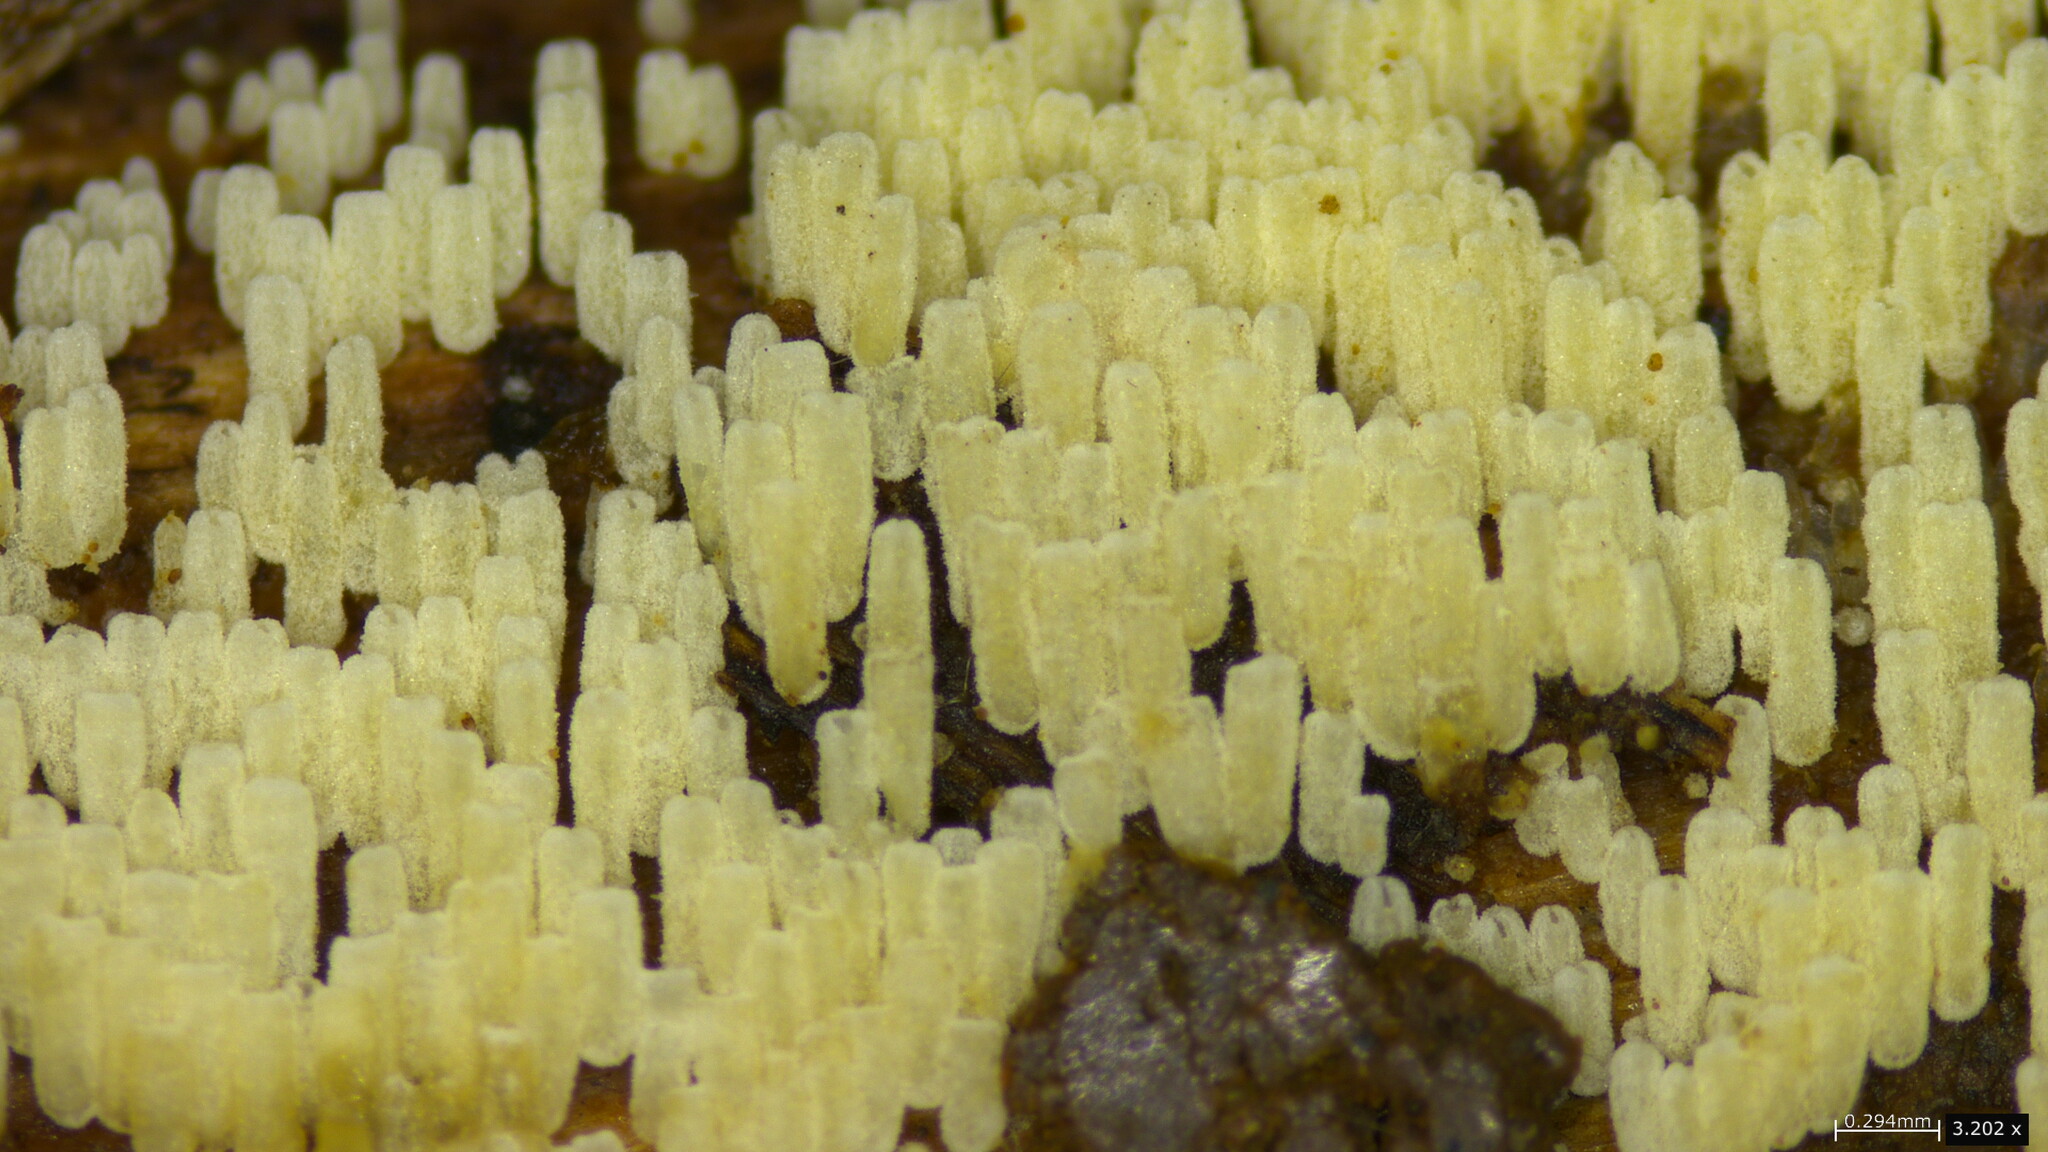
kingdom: Fungi
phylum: Basidiomycota
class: Agaricomycetes
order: Agaricales
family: Marasmiaceae
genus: Henningsomyces
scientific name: Henningsomyces candidus
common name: White tubelet
